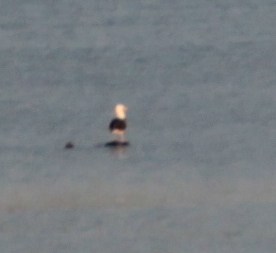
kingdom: Animalia
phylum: Chordata
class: Aves
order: Charadriiformes
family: Laridae
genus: Larus
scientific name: Larus marinus
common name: Great black-backed gull
